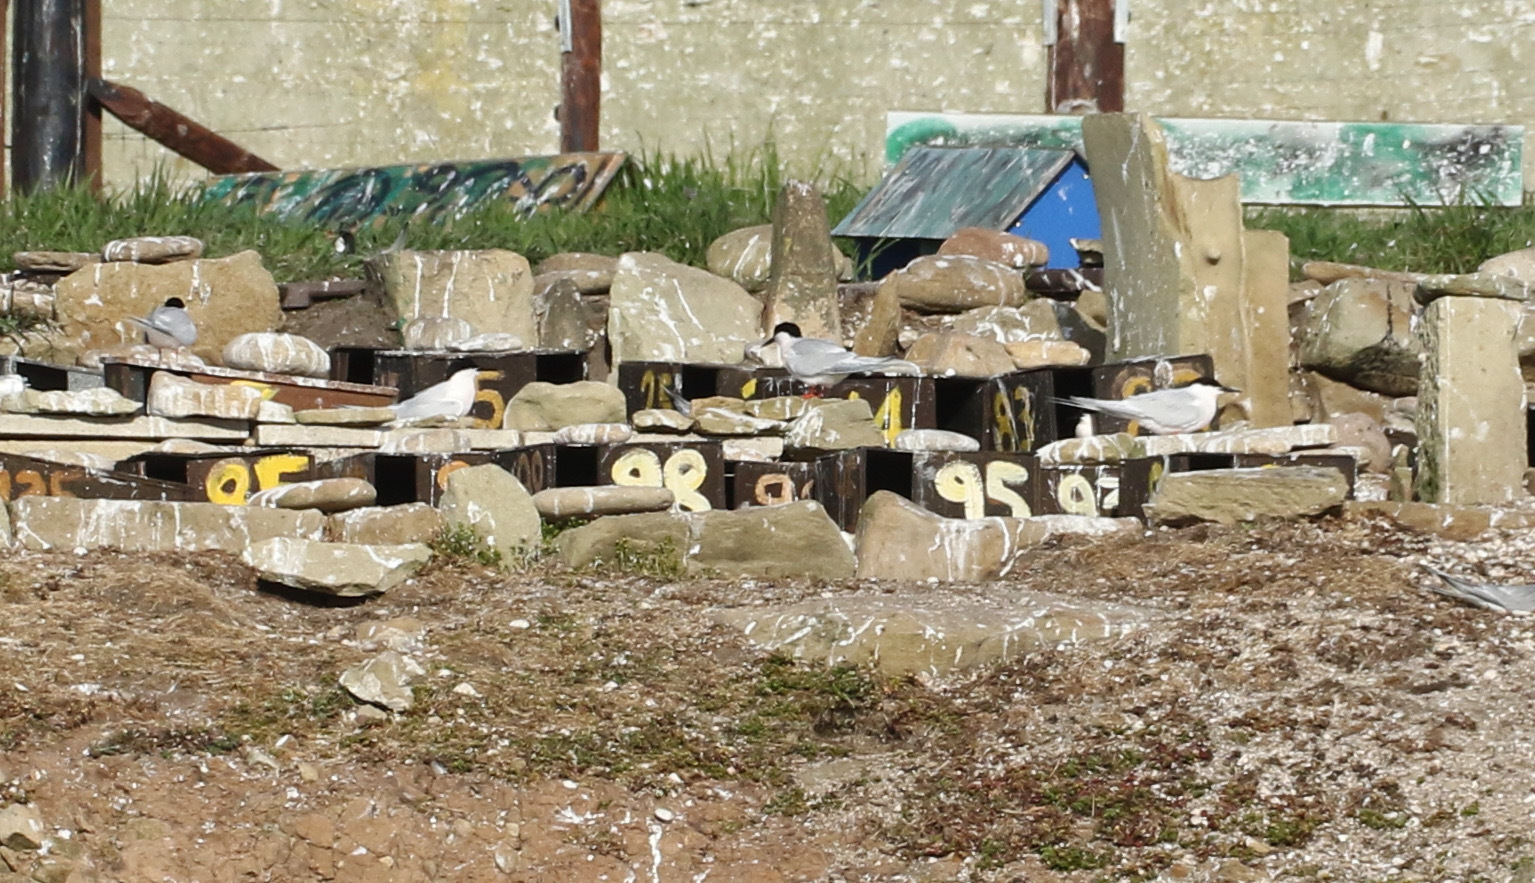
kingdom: Animalia
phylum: Chordata
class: Aves
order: Charadriiformes
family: Laridae
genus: Sterna
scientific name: Sterna dougallii
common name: Roseate tern
